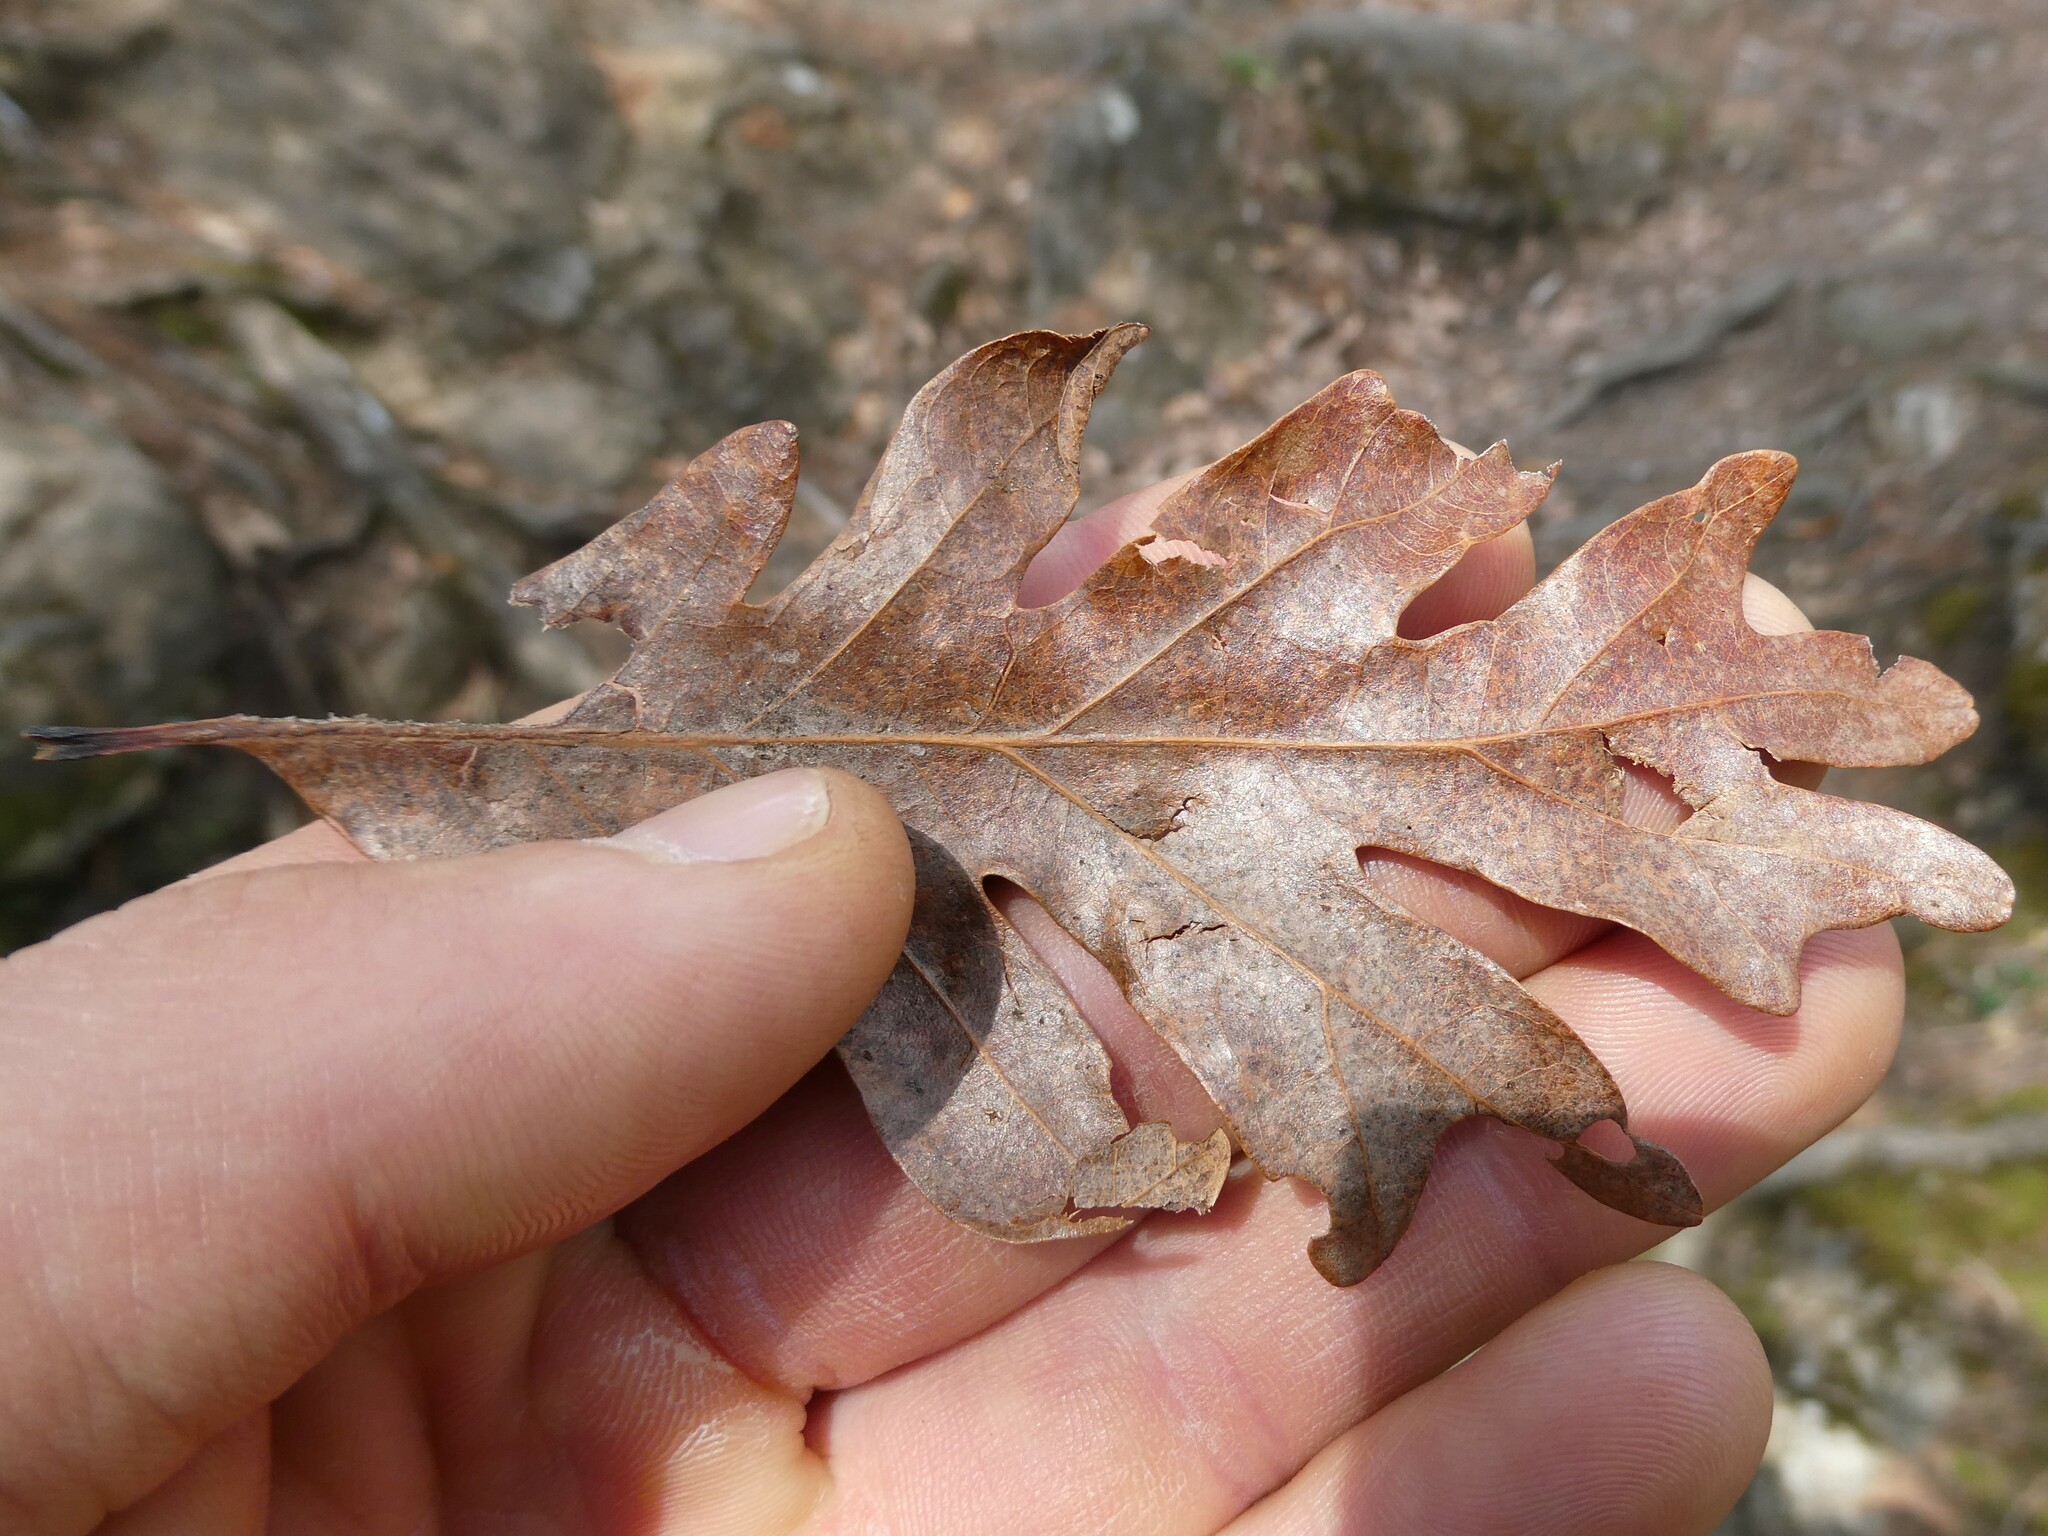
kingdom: Plantae
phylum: Tracheophyta
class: Magnoliopsida
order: Fagales
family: Fagaceae
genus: Quercus
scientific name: Quercus alba
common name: White oak
